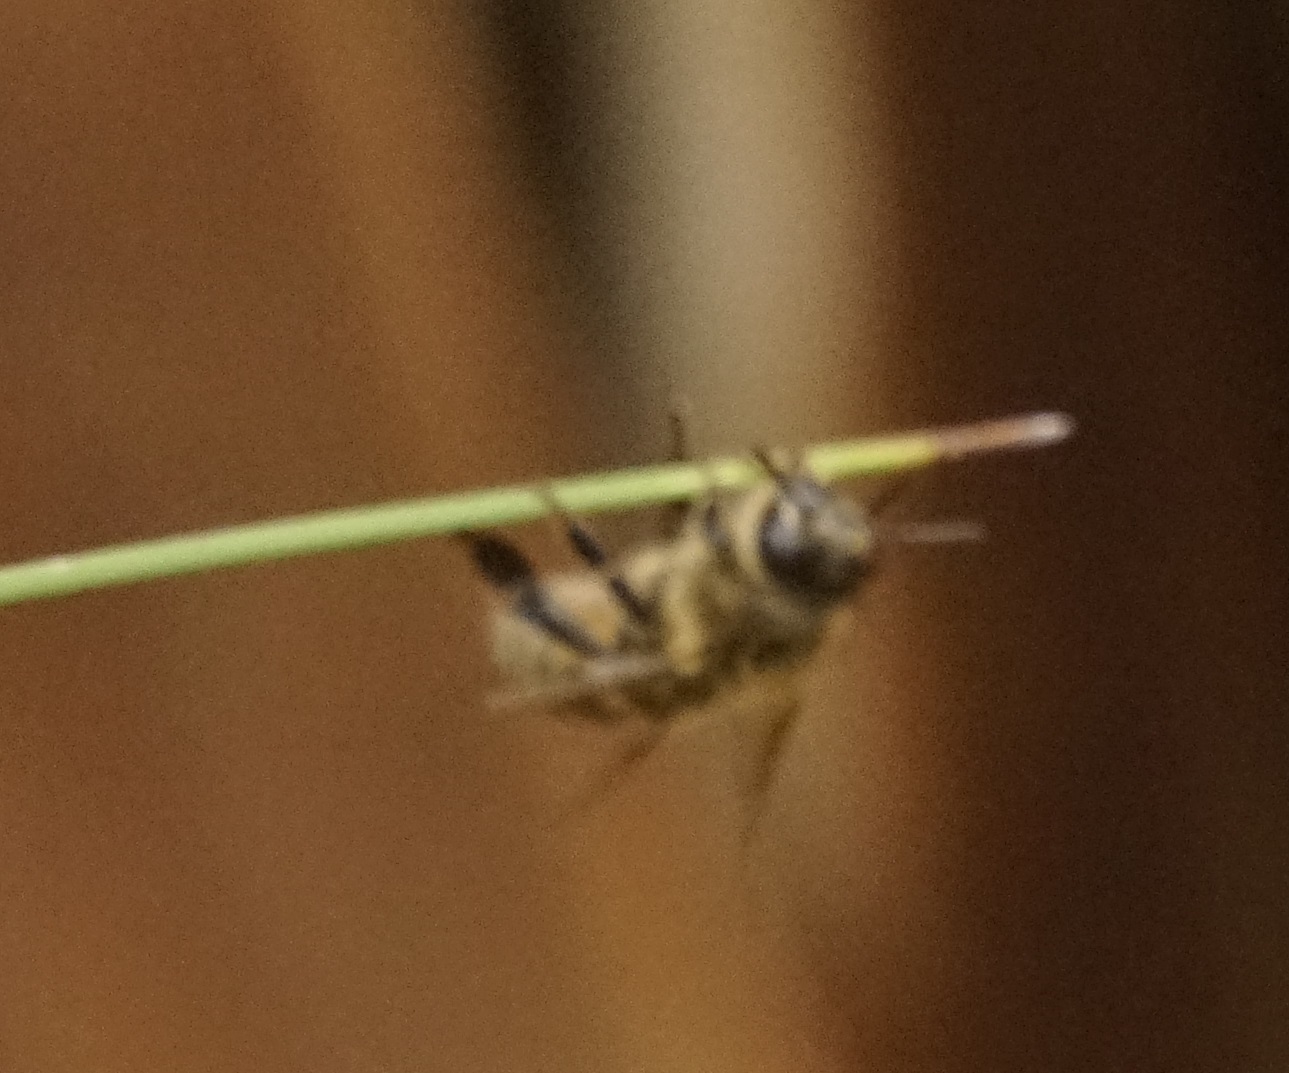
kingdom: Animalia
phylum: Arthropoda
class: Insecta
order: Hymenoptera
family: Apidae
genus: Apis
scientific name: Apis mellifera
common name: Honey bee
